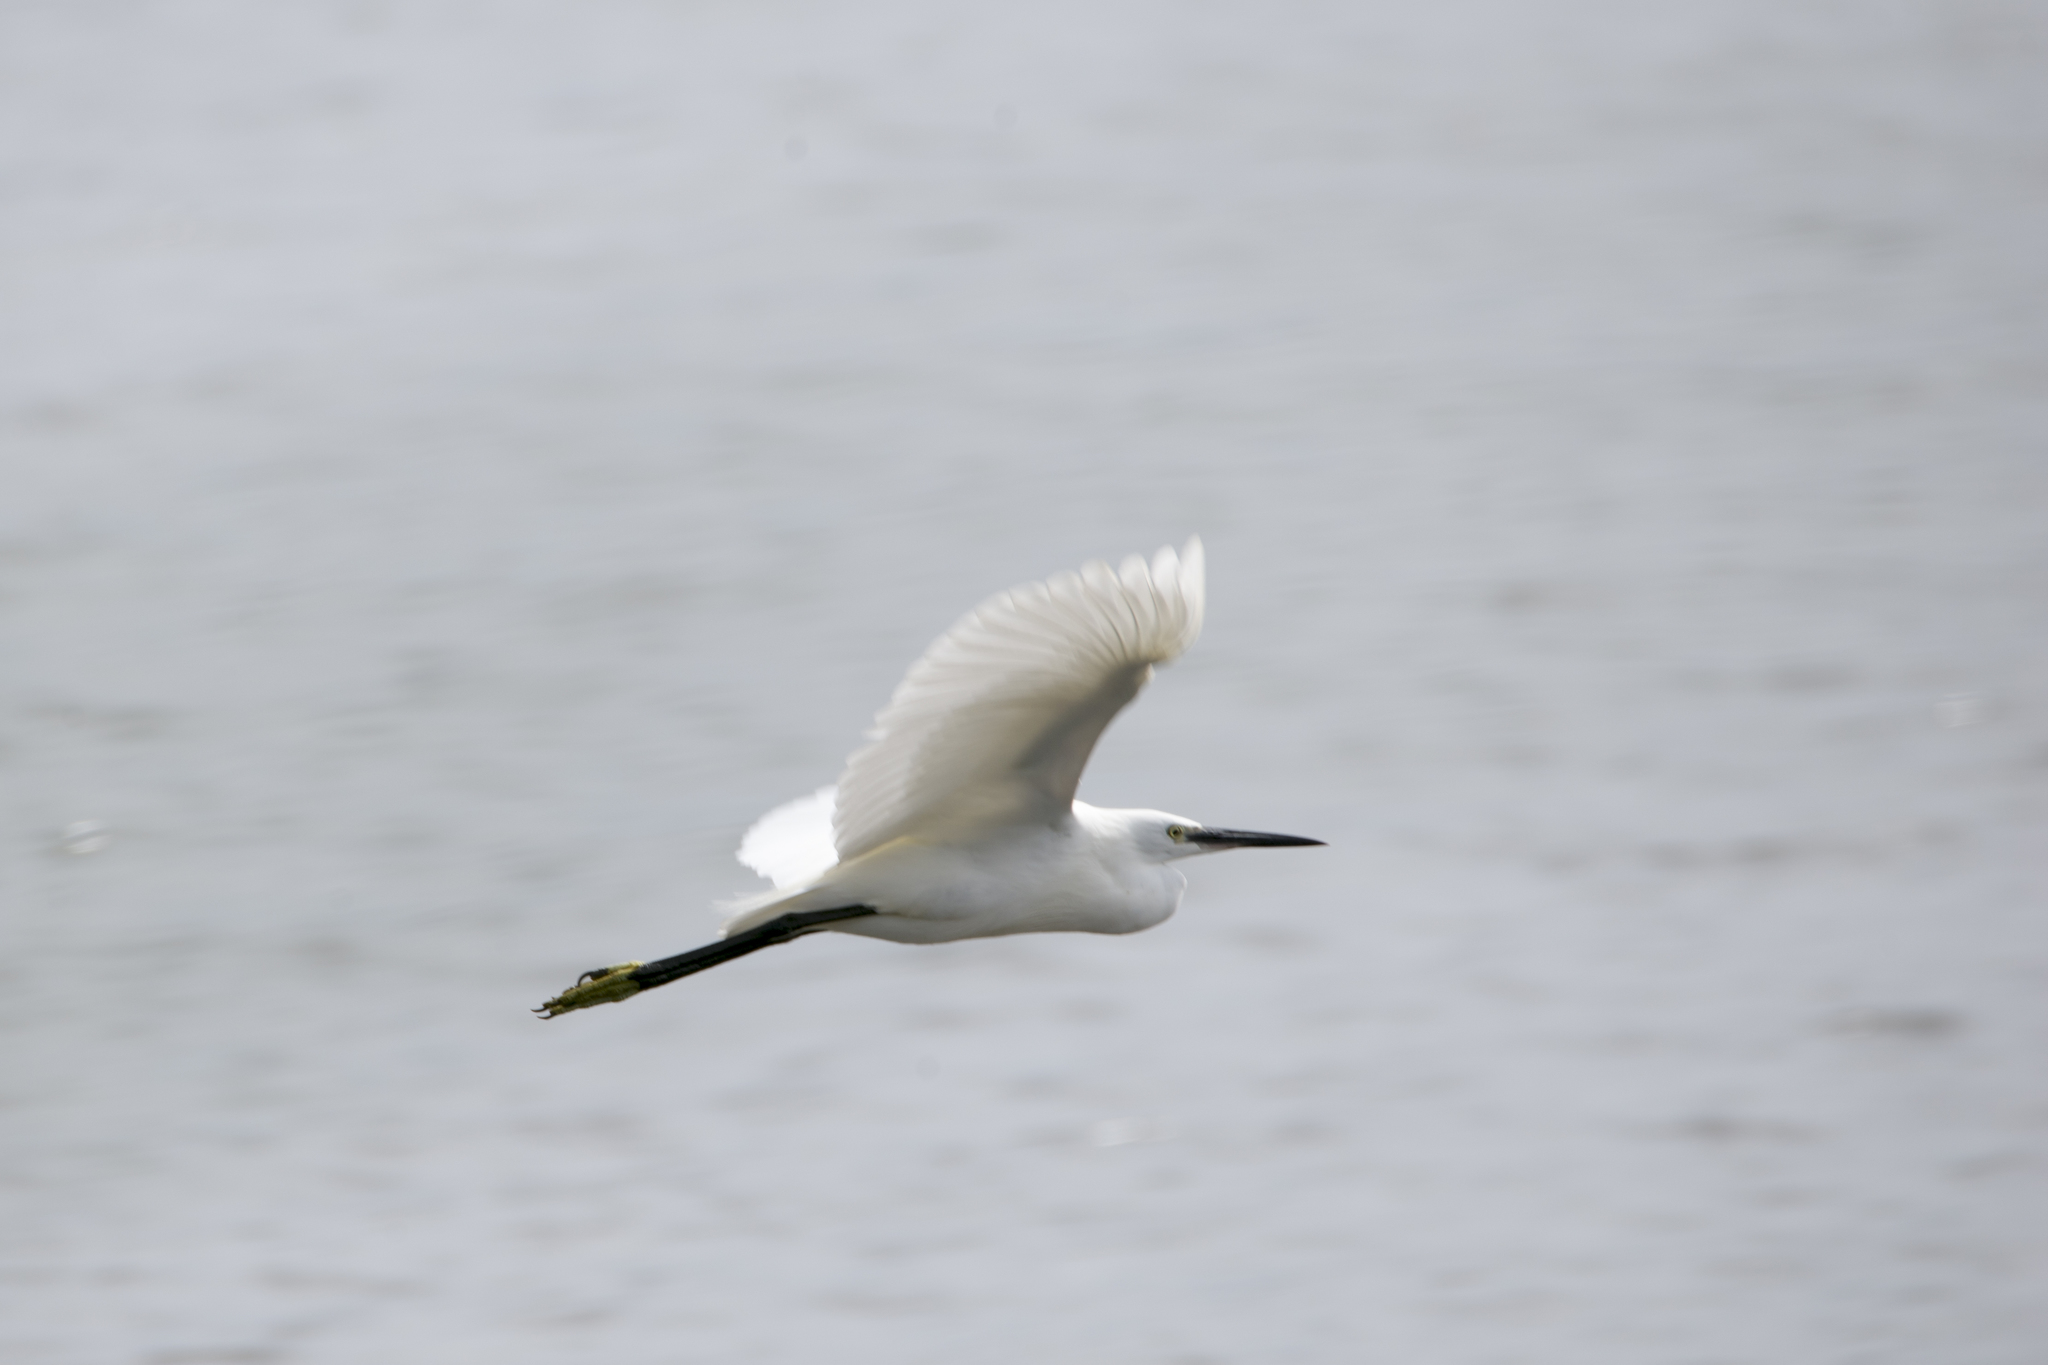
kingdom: Animalia
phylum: Chordata
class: Aves
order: Pelecaniformes
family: Ardeidae
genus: Egretta
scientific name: Egretta garzetta
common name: Little egret
